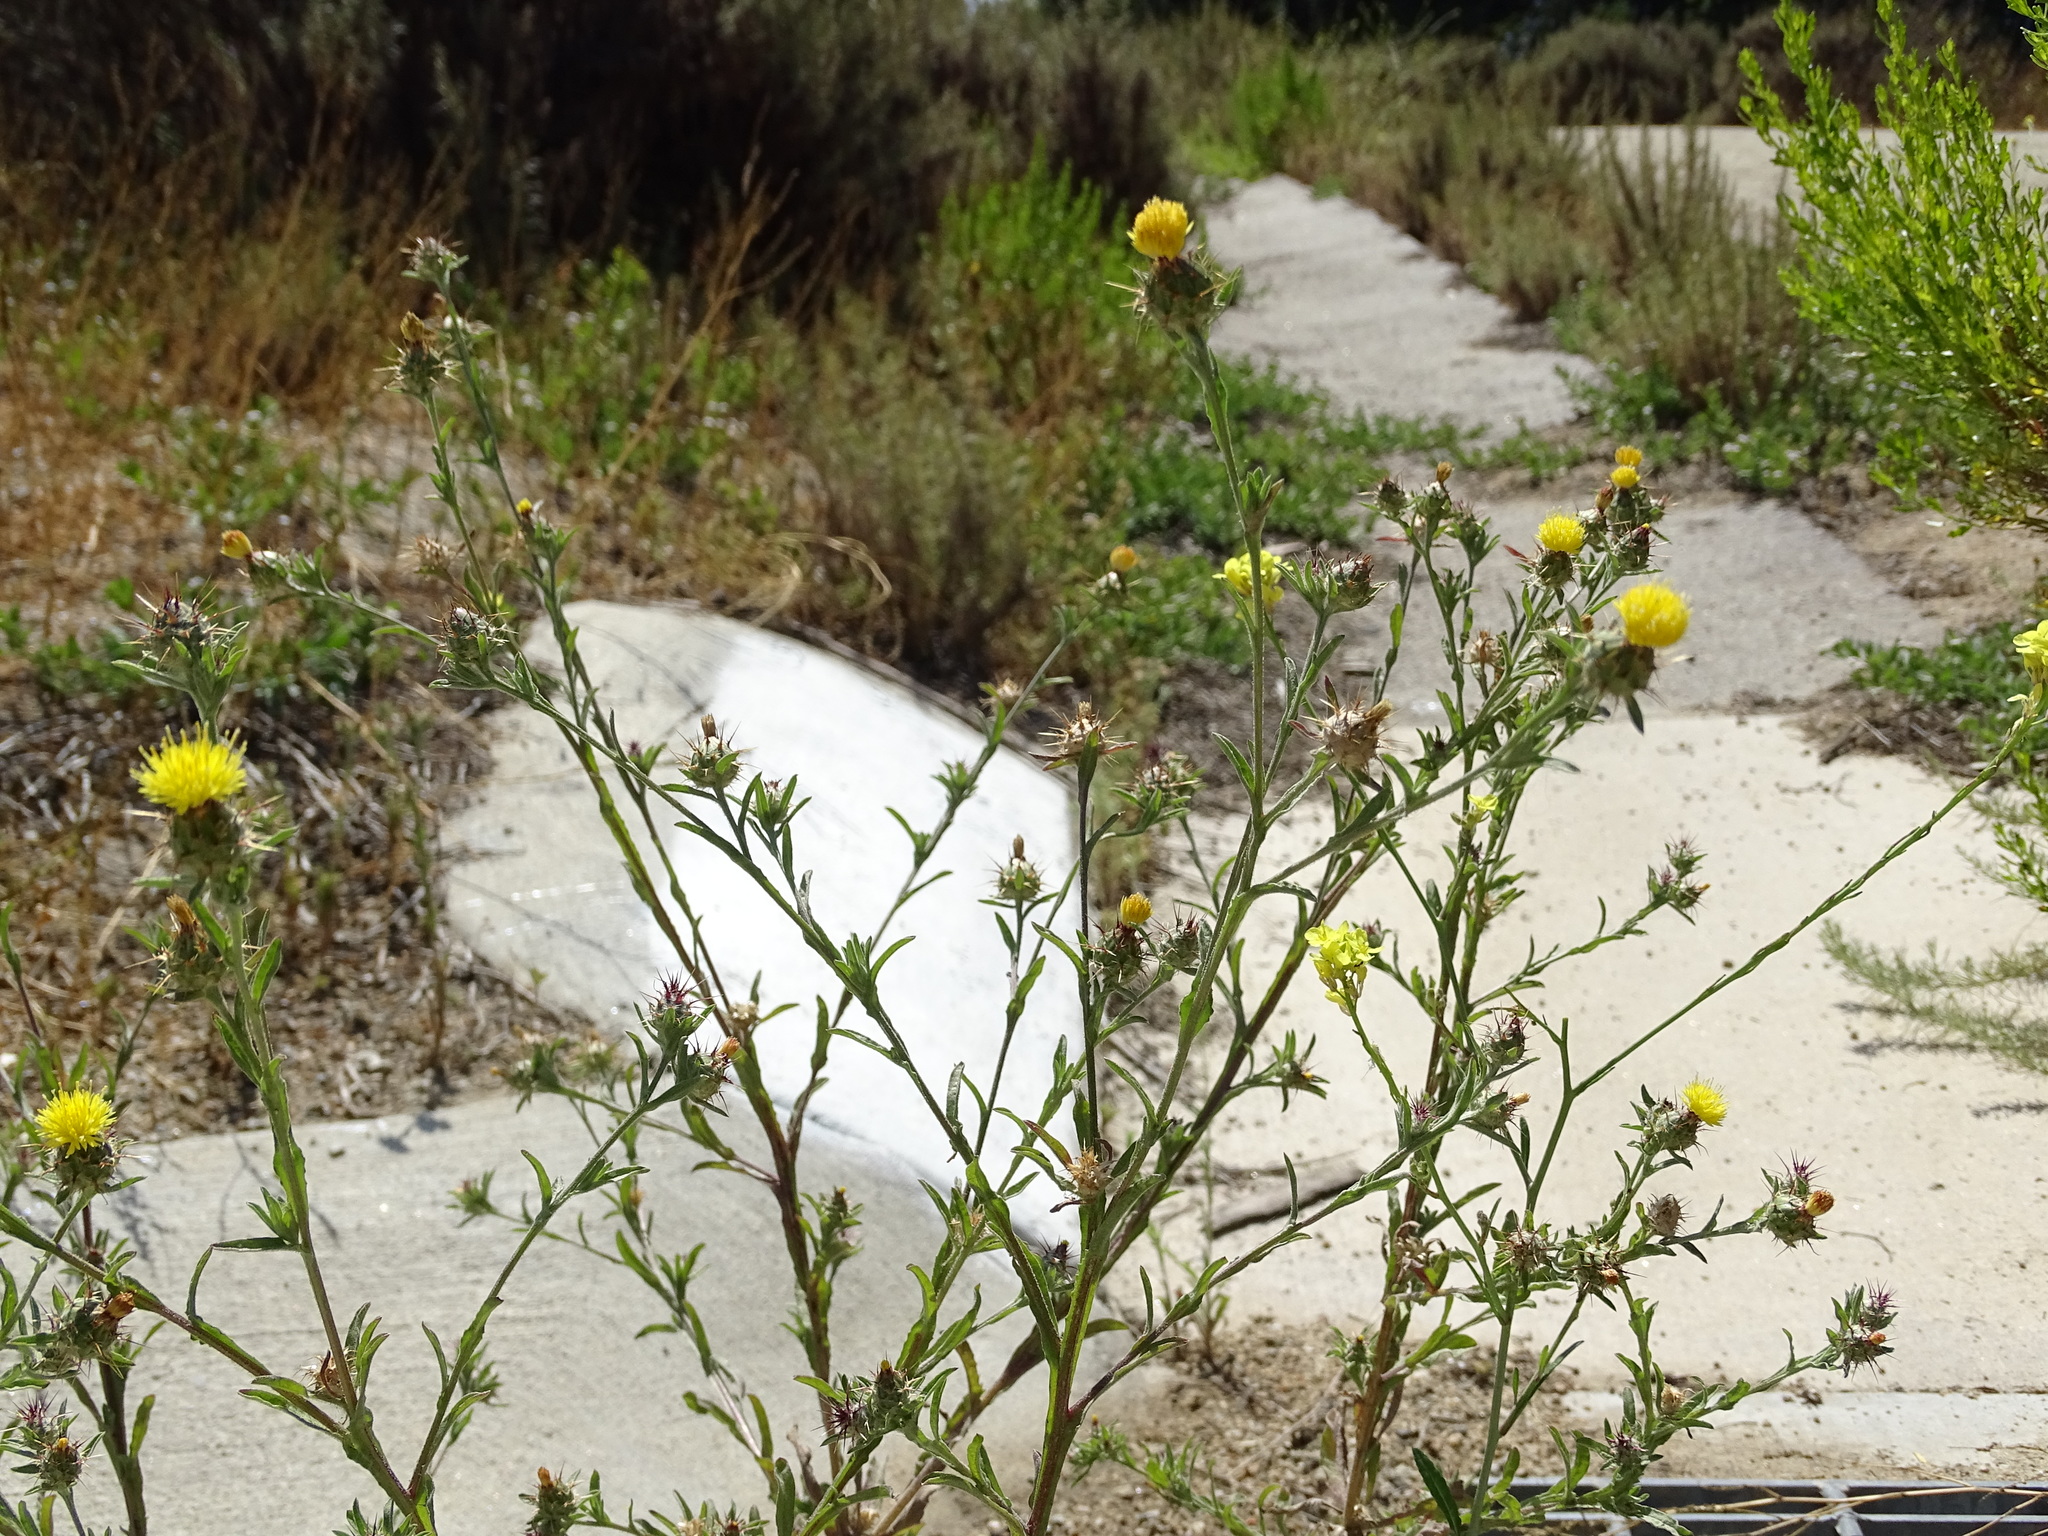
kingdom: Plantae
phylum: Tracheophyta
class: Magnoliopsida
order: Asterales
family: Asteraceae
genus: Centaurea
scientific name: Centaurea melitensis
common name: Maltese star-thistle
